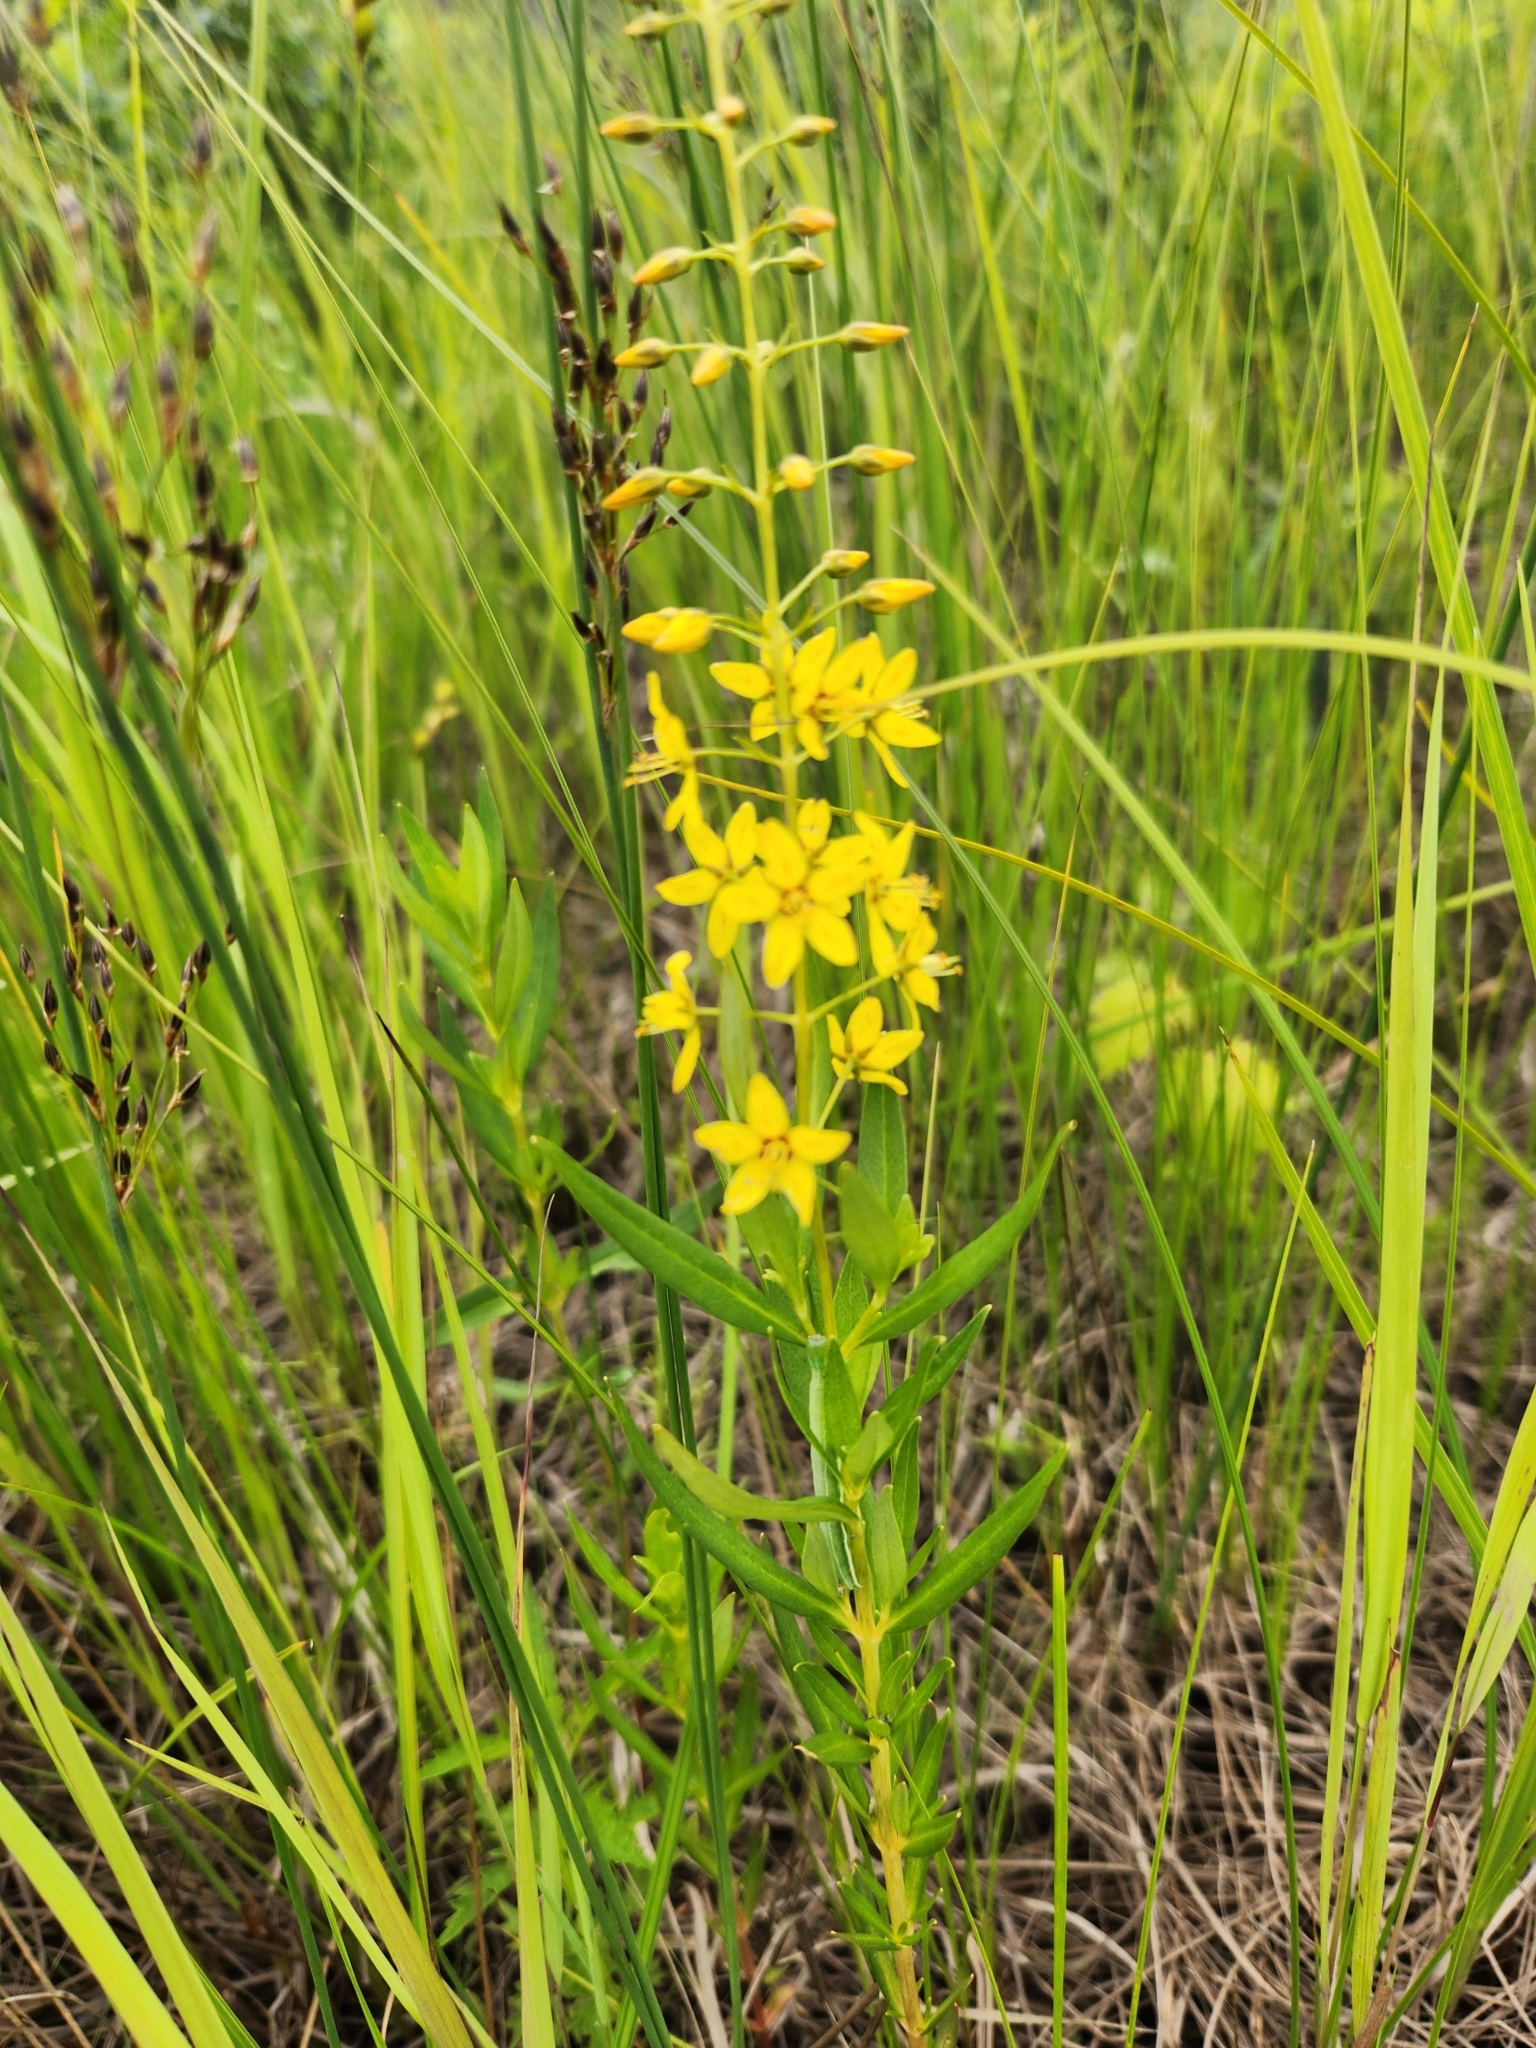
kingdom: Plantae
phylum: Tracheophyta
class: Magnoliopsida
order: Ericales
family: Primulaceae
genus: Lysimachia
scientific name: Lysimachia terrestris
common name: Lake loosestrife
